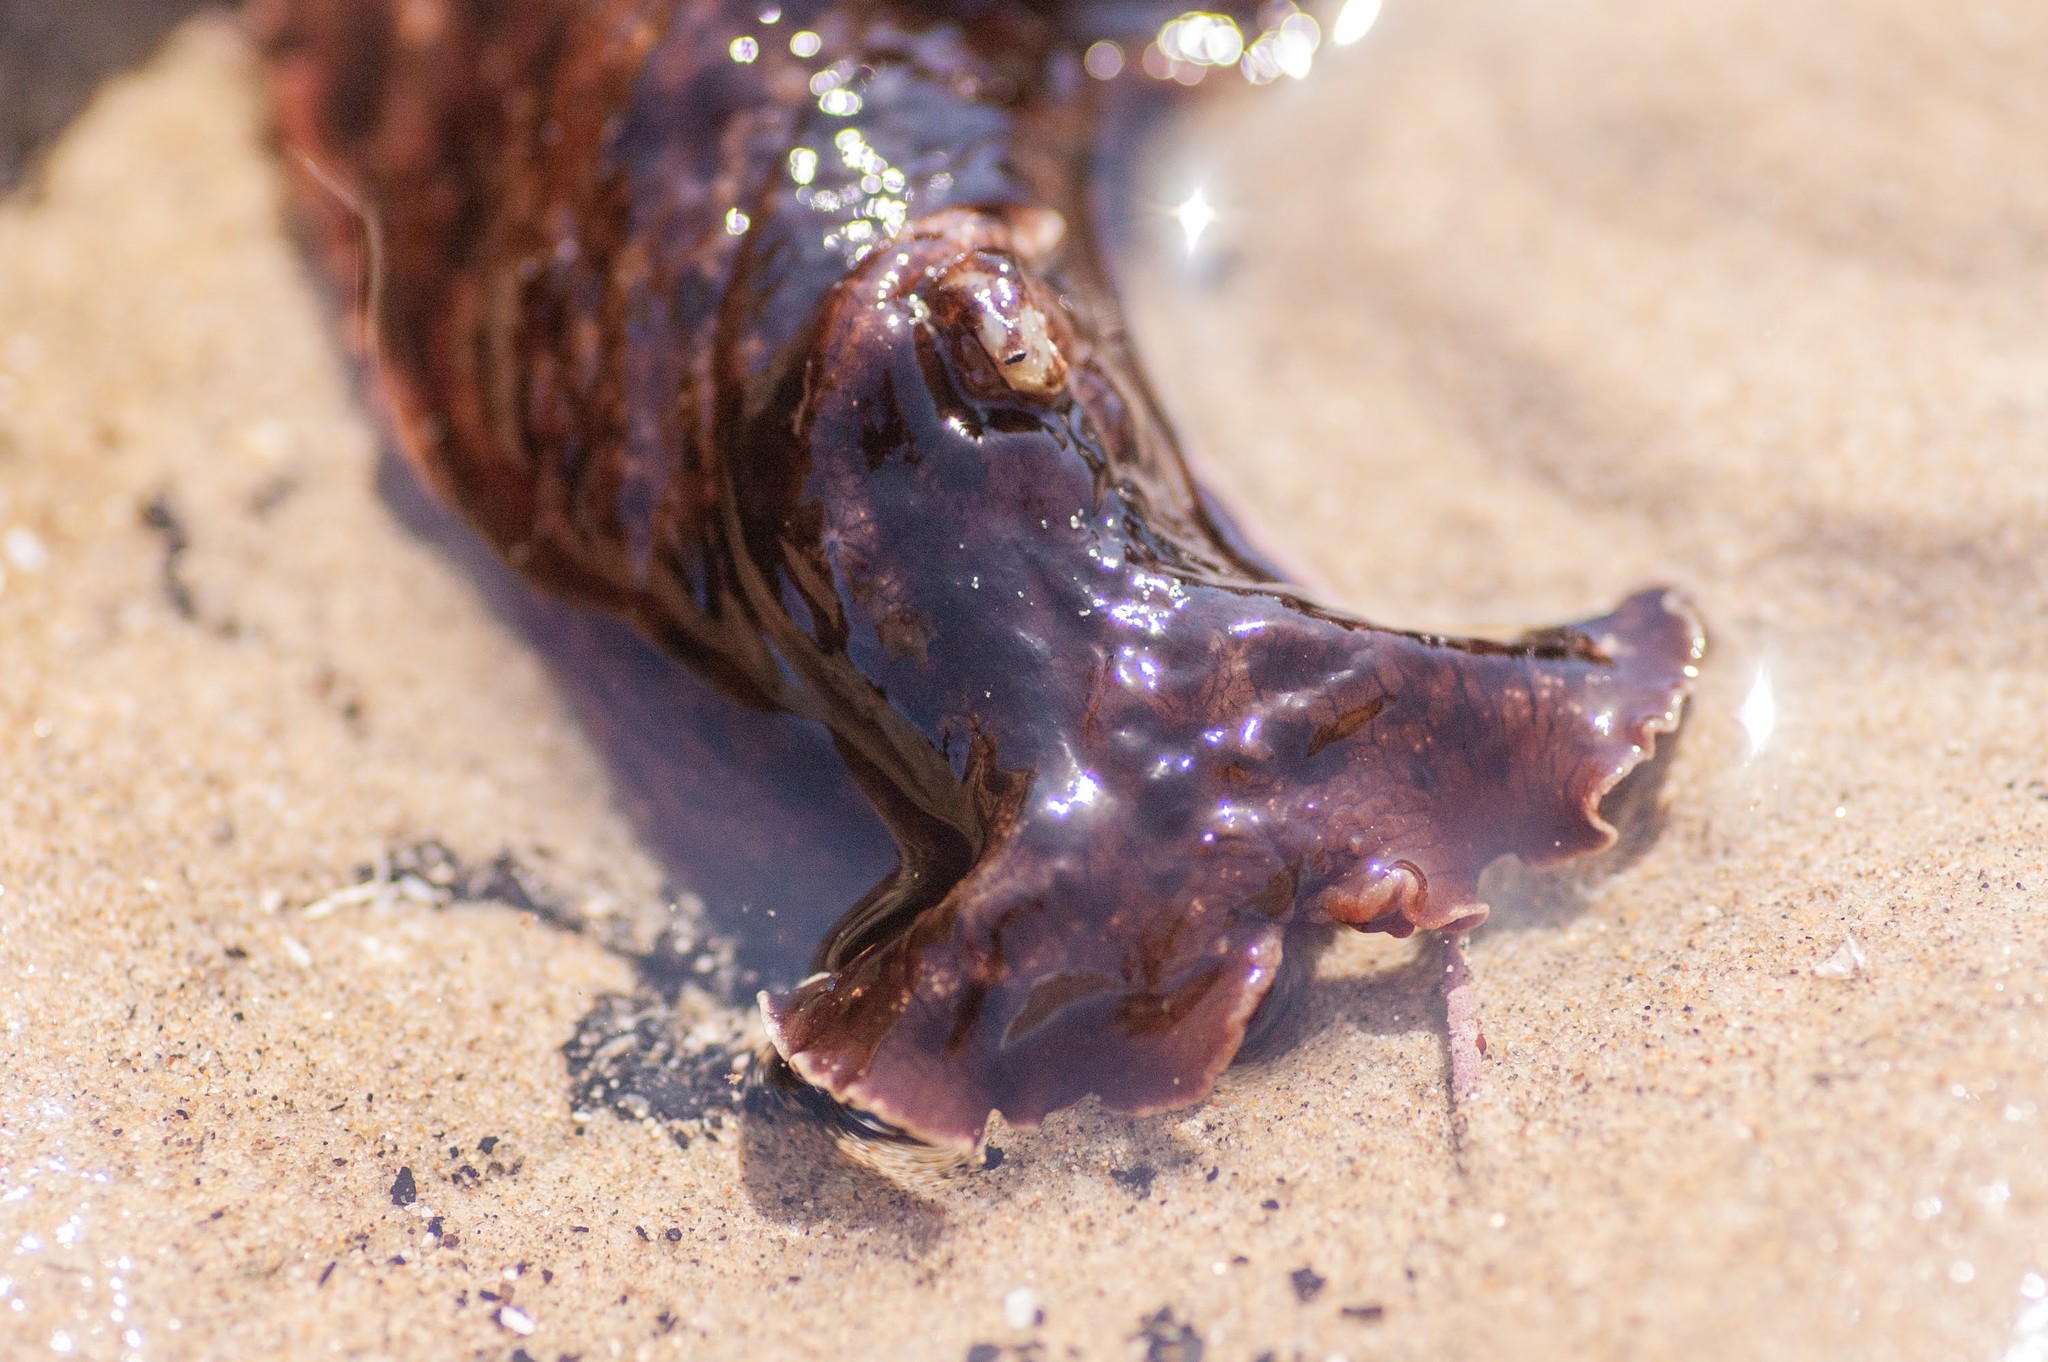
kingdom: Animalia
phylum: Mollusca
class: Gastropoda
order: Aplysiida
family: Aplysiidae
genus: Aplysia
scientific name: Aplysia californica
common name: California seahare
